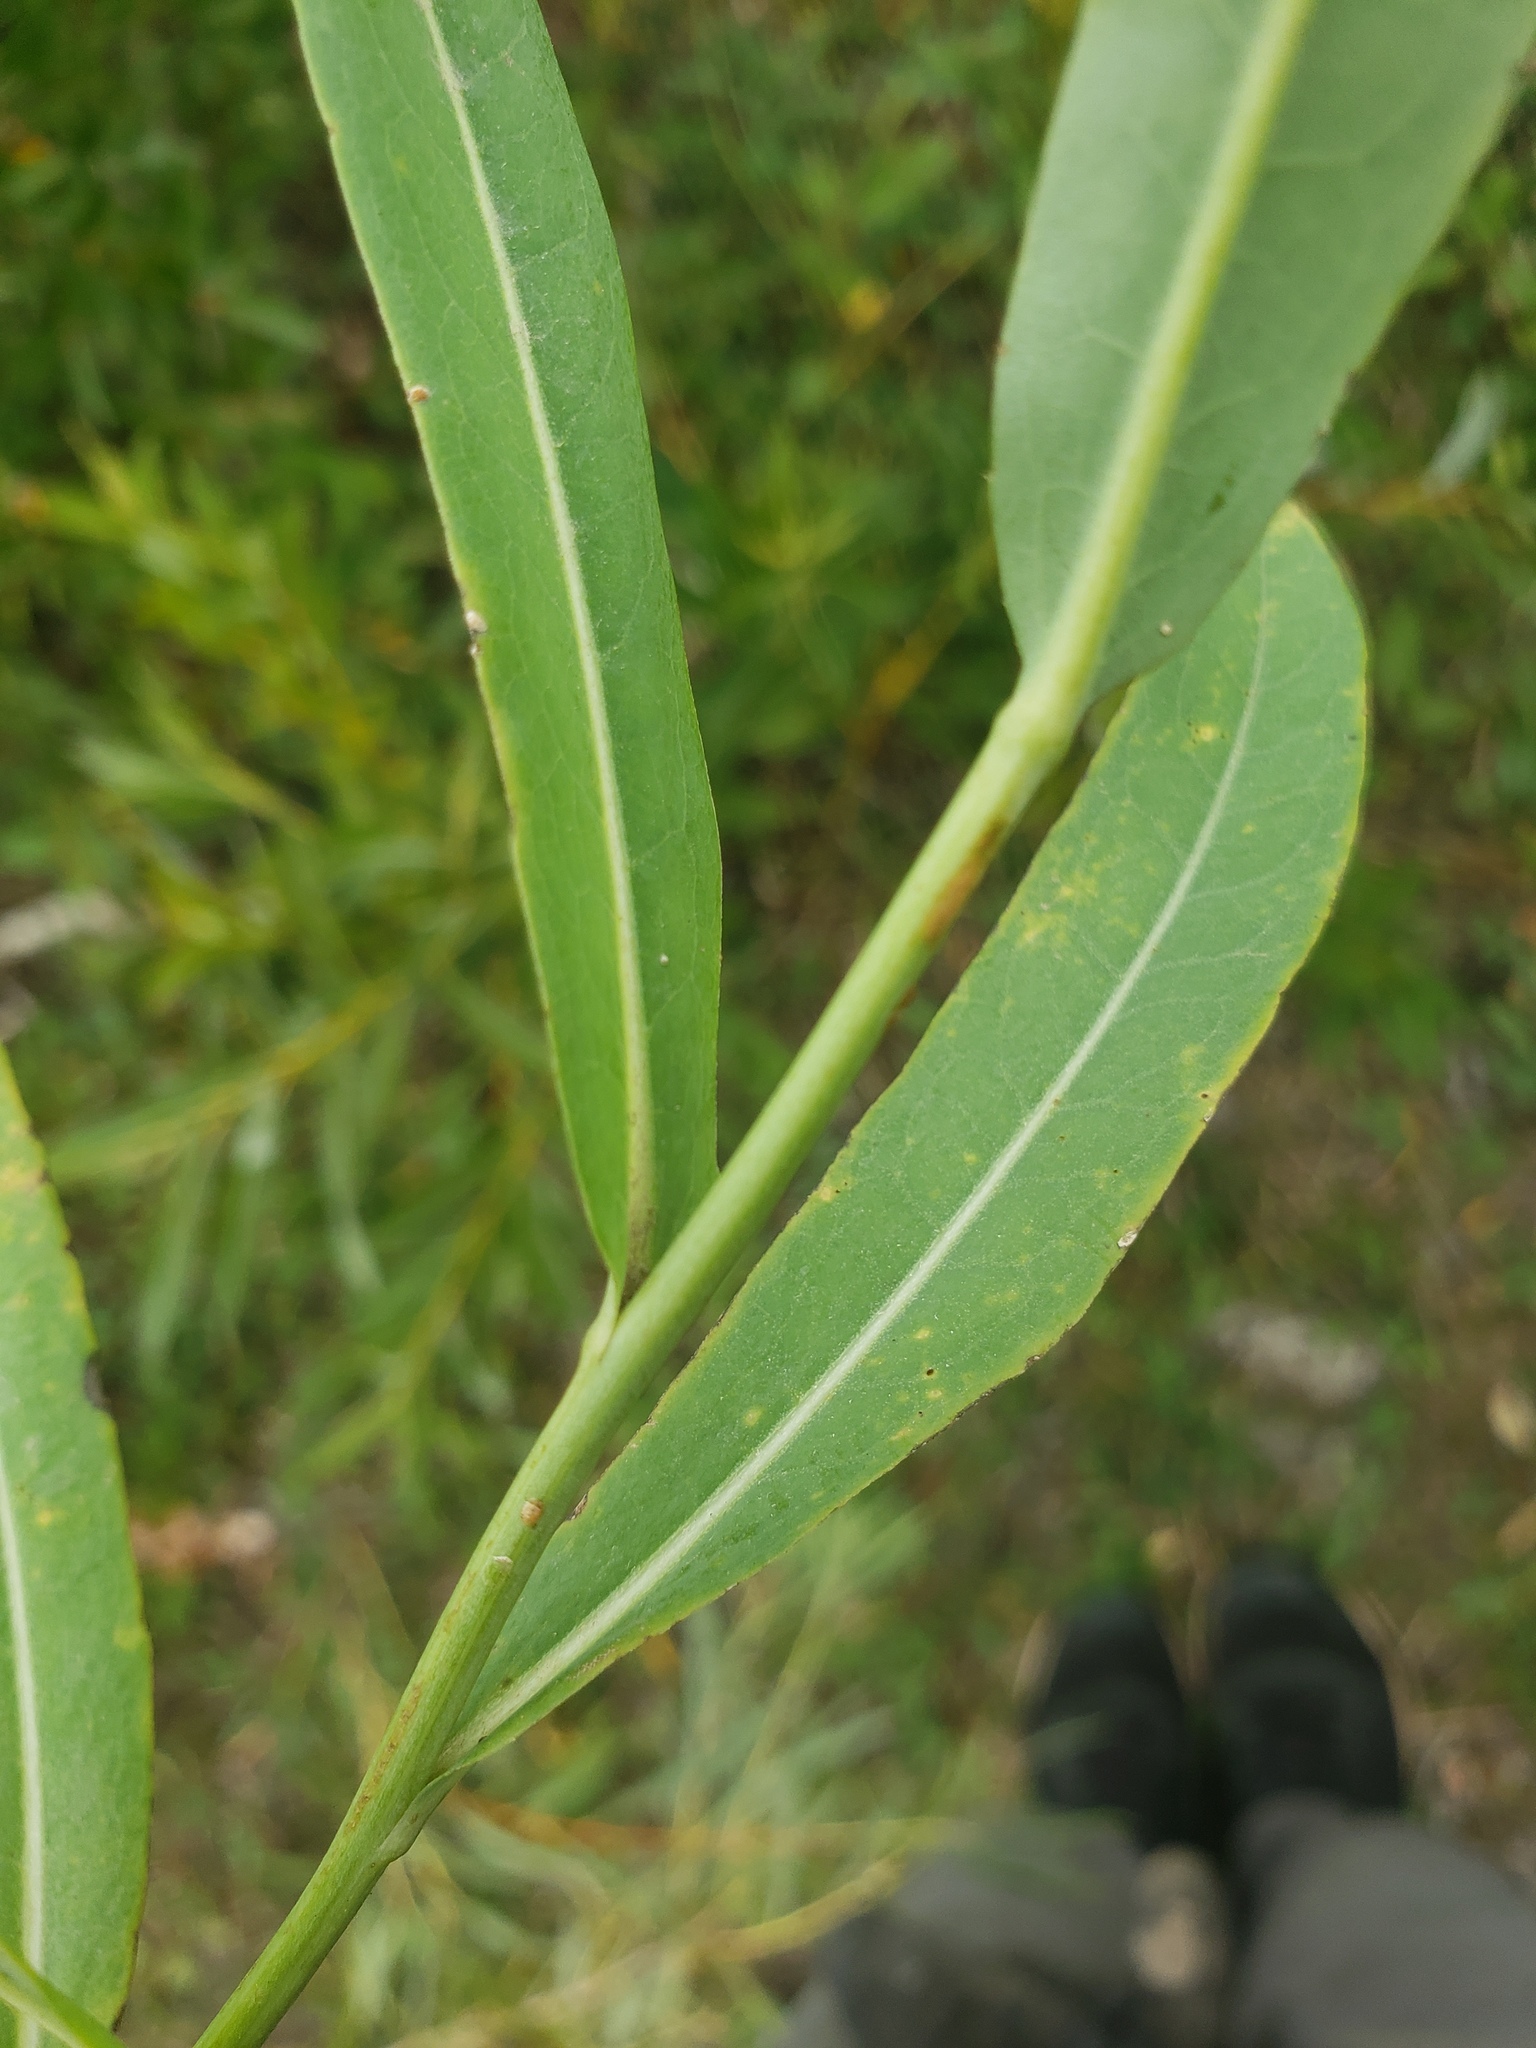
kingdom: Plantae
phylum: Tracheophyta
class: Magnoliopsida
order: Asterales
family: Asteraceae
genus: Lactuca
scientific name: Lactuca pulchella
